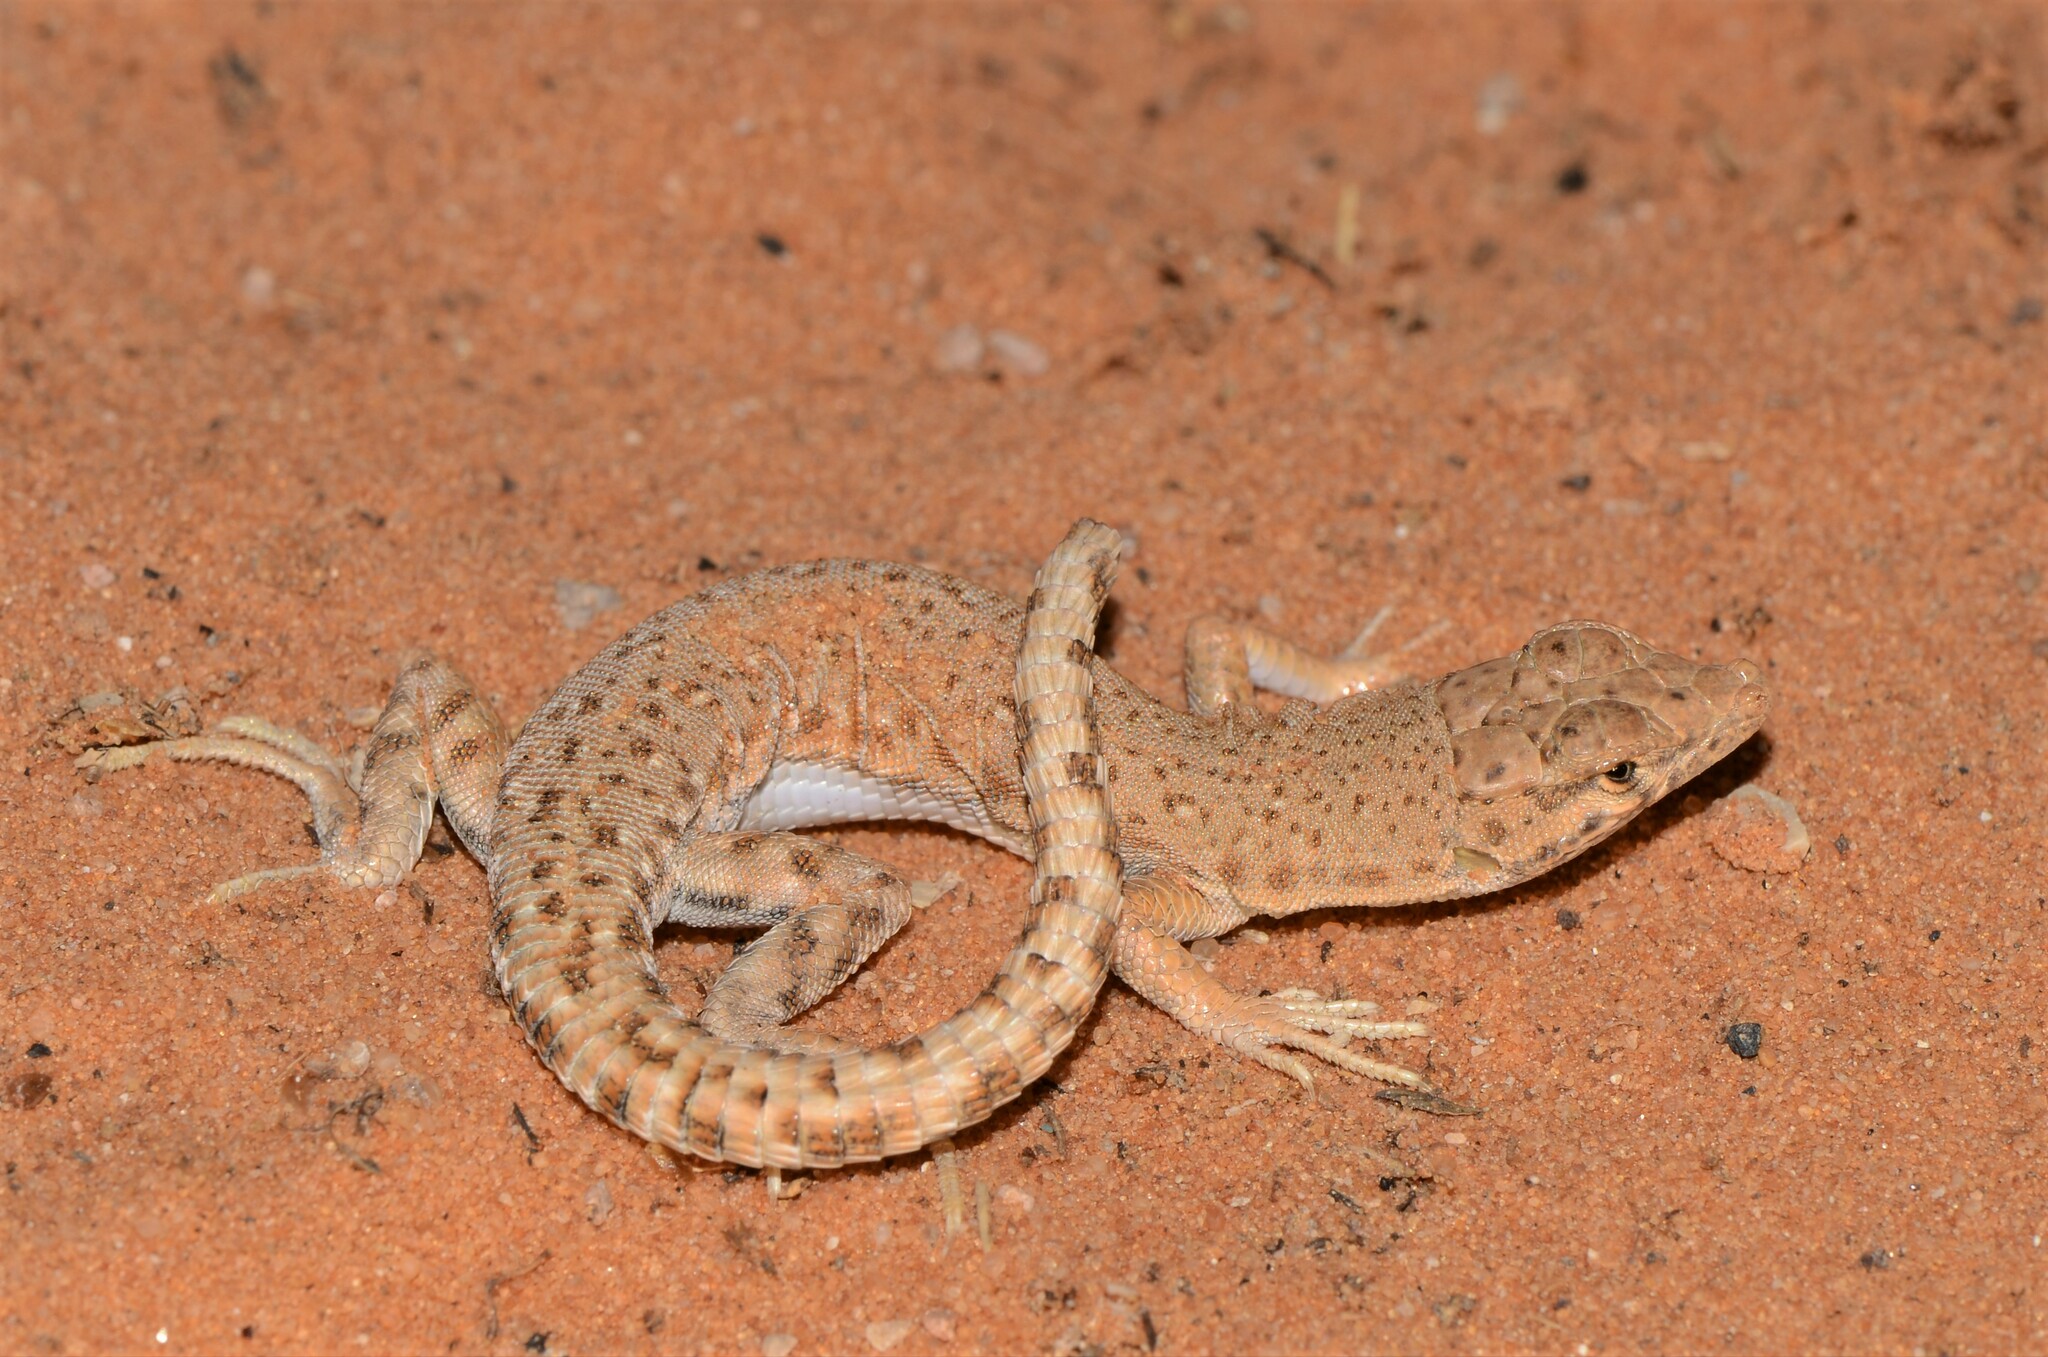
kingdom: Animalia
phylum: Chordata
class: Squamata
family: Lacertidae
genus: Mesalina
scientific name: Mesalina brevirostris
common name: Blanford's short-nosed desert lizard
